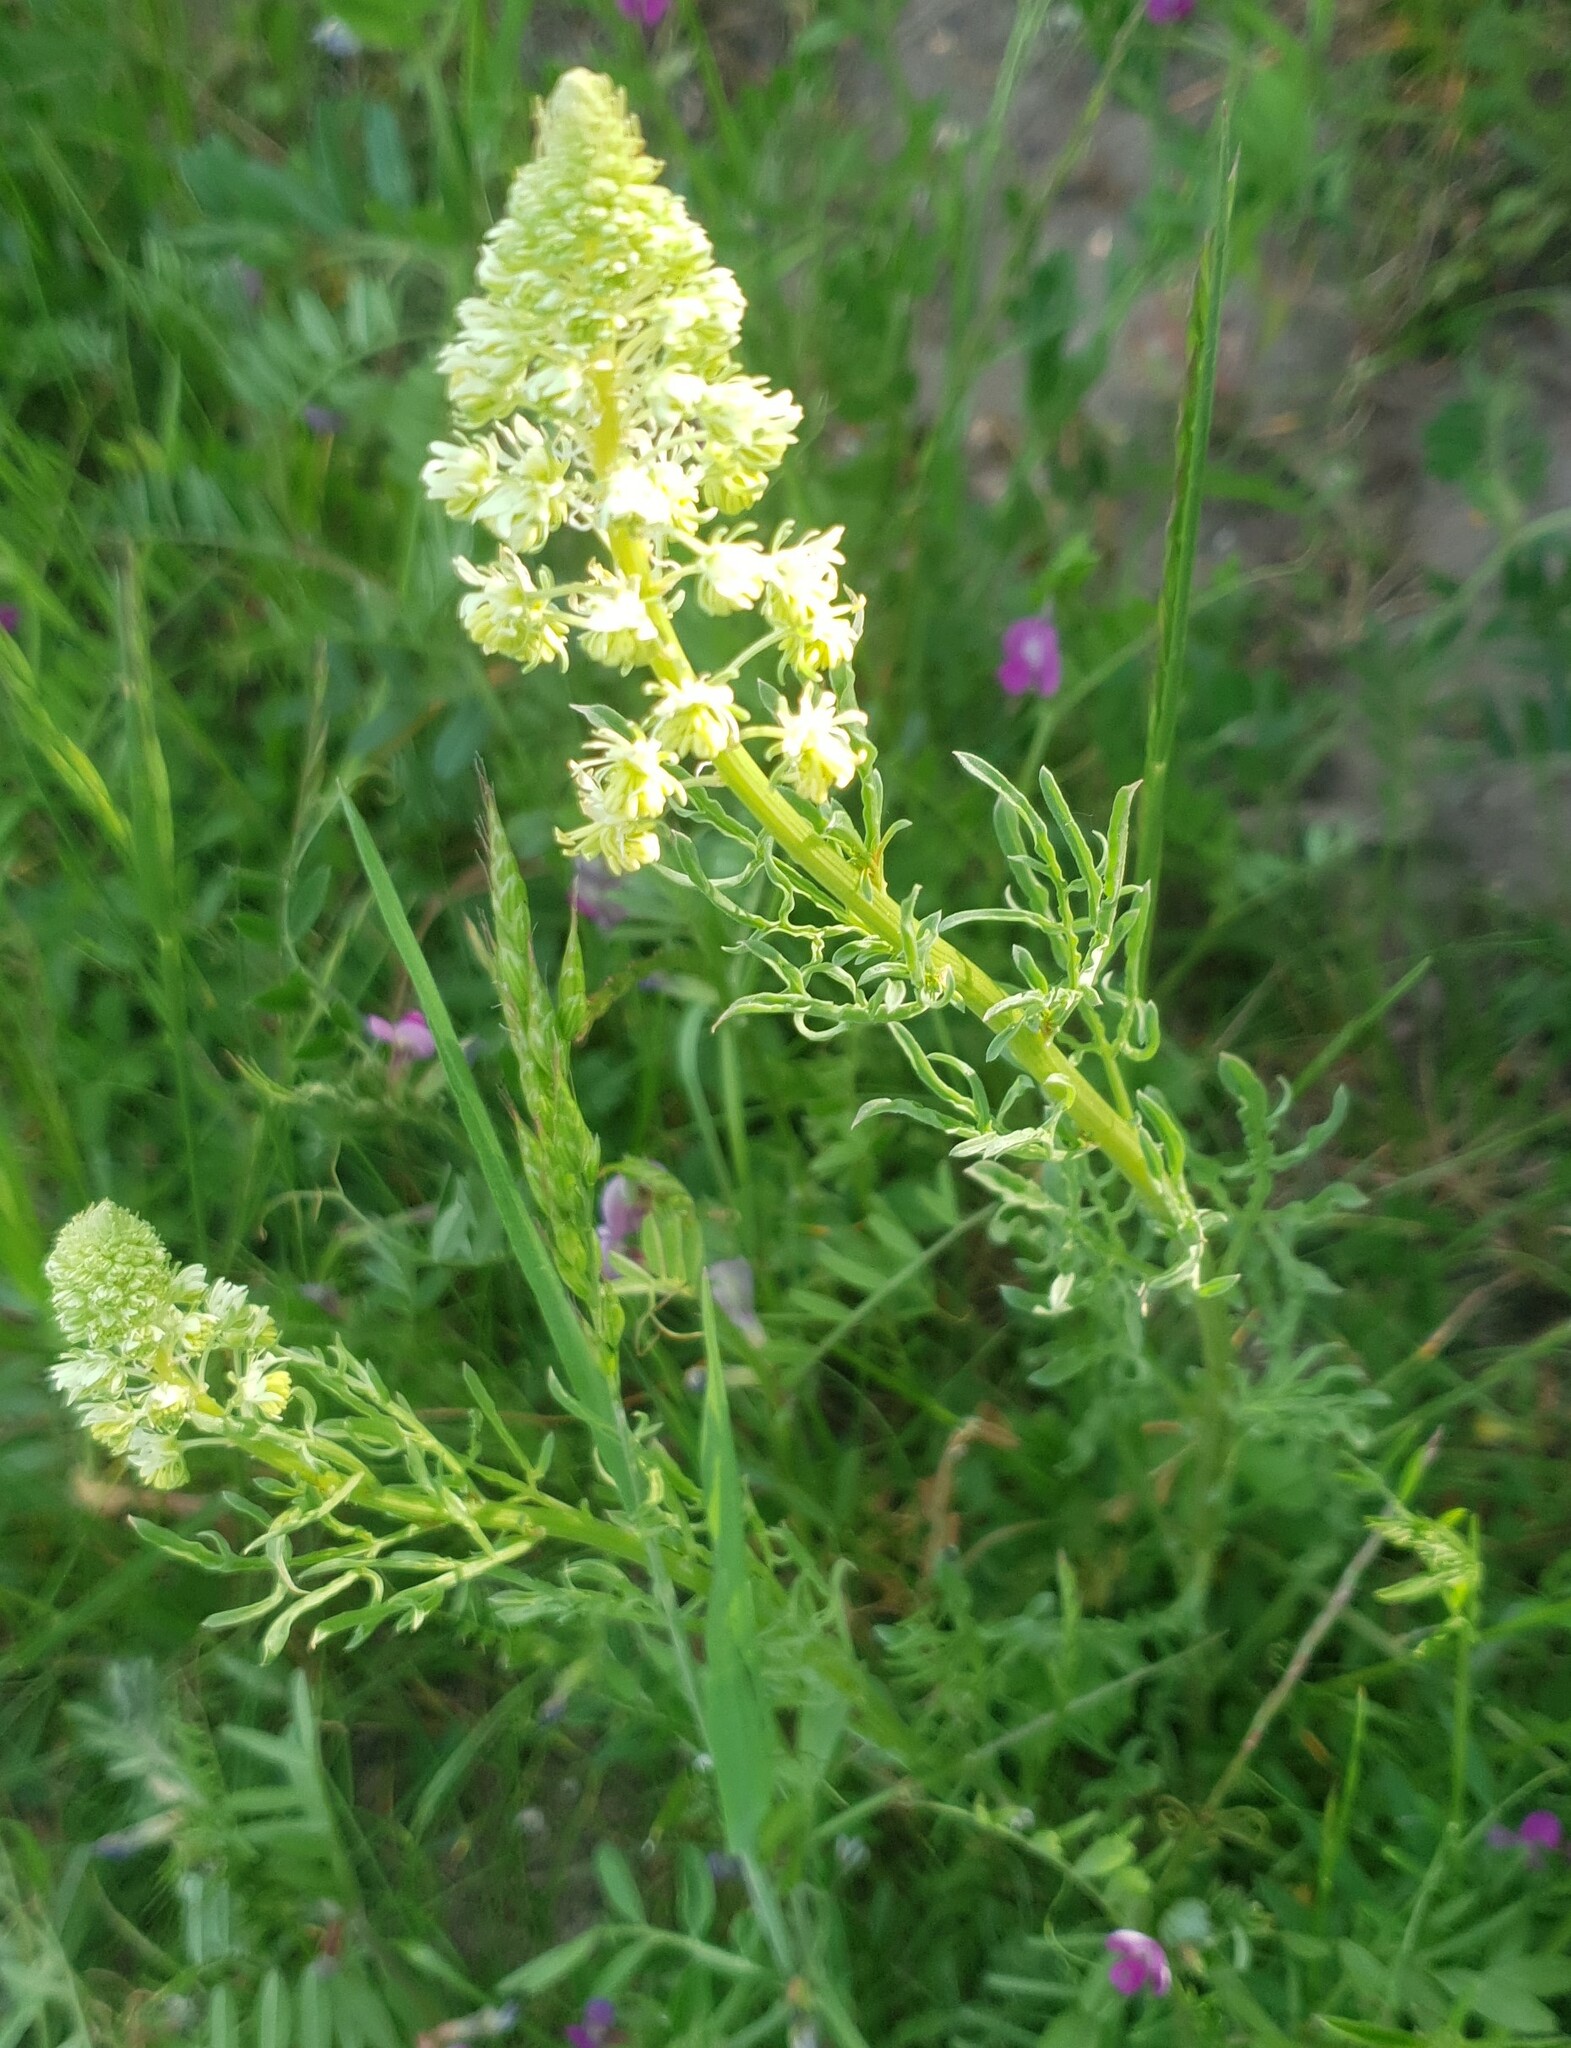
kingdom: Plantae
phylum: Tracheophyta
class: Magnoliopsida
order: Brassicales
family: Resedaceae
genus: Reseda
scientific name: Reseda lutea
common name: Wild mignonette
